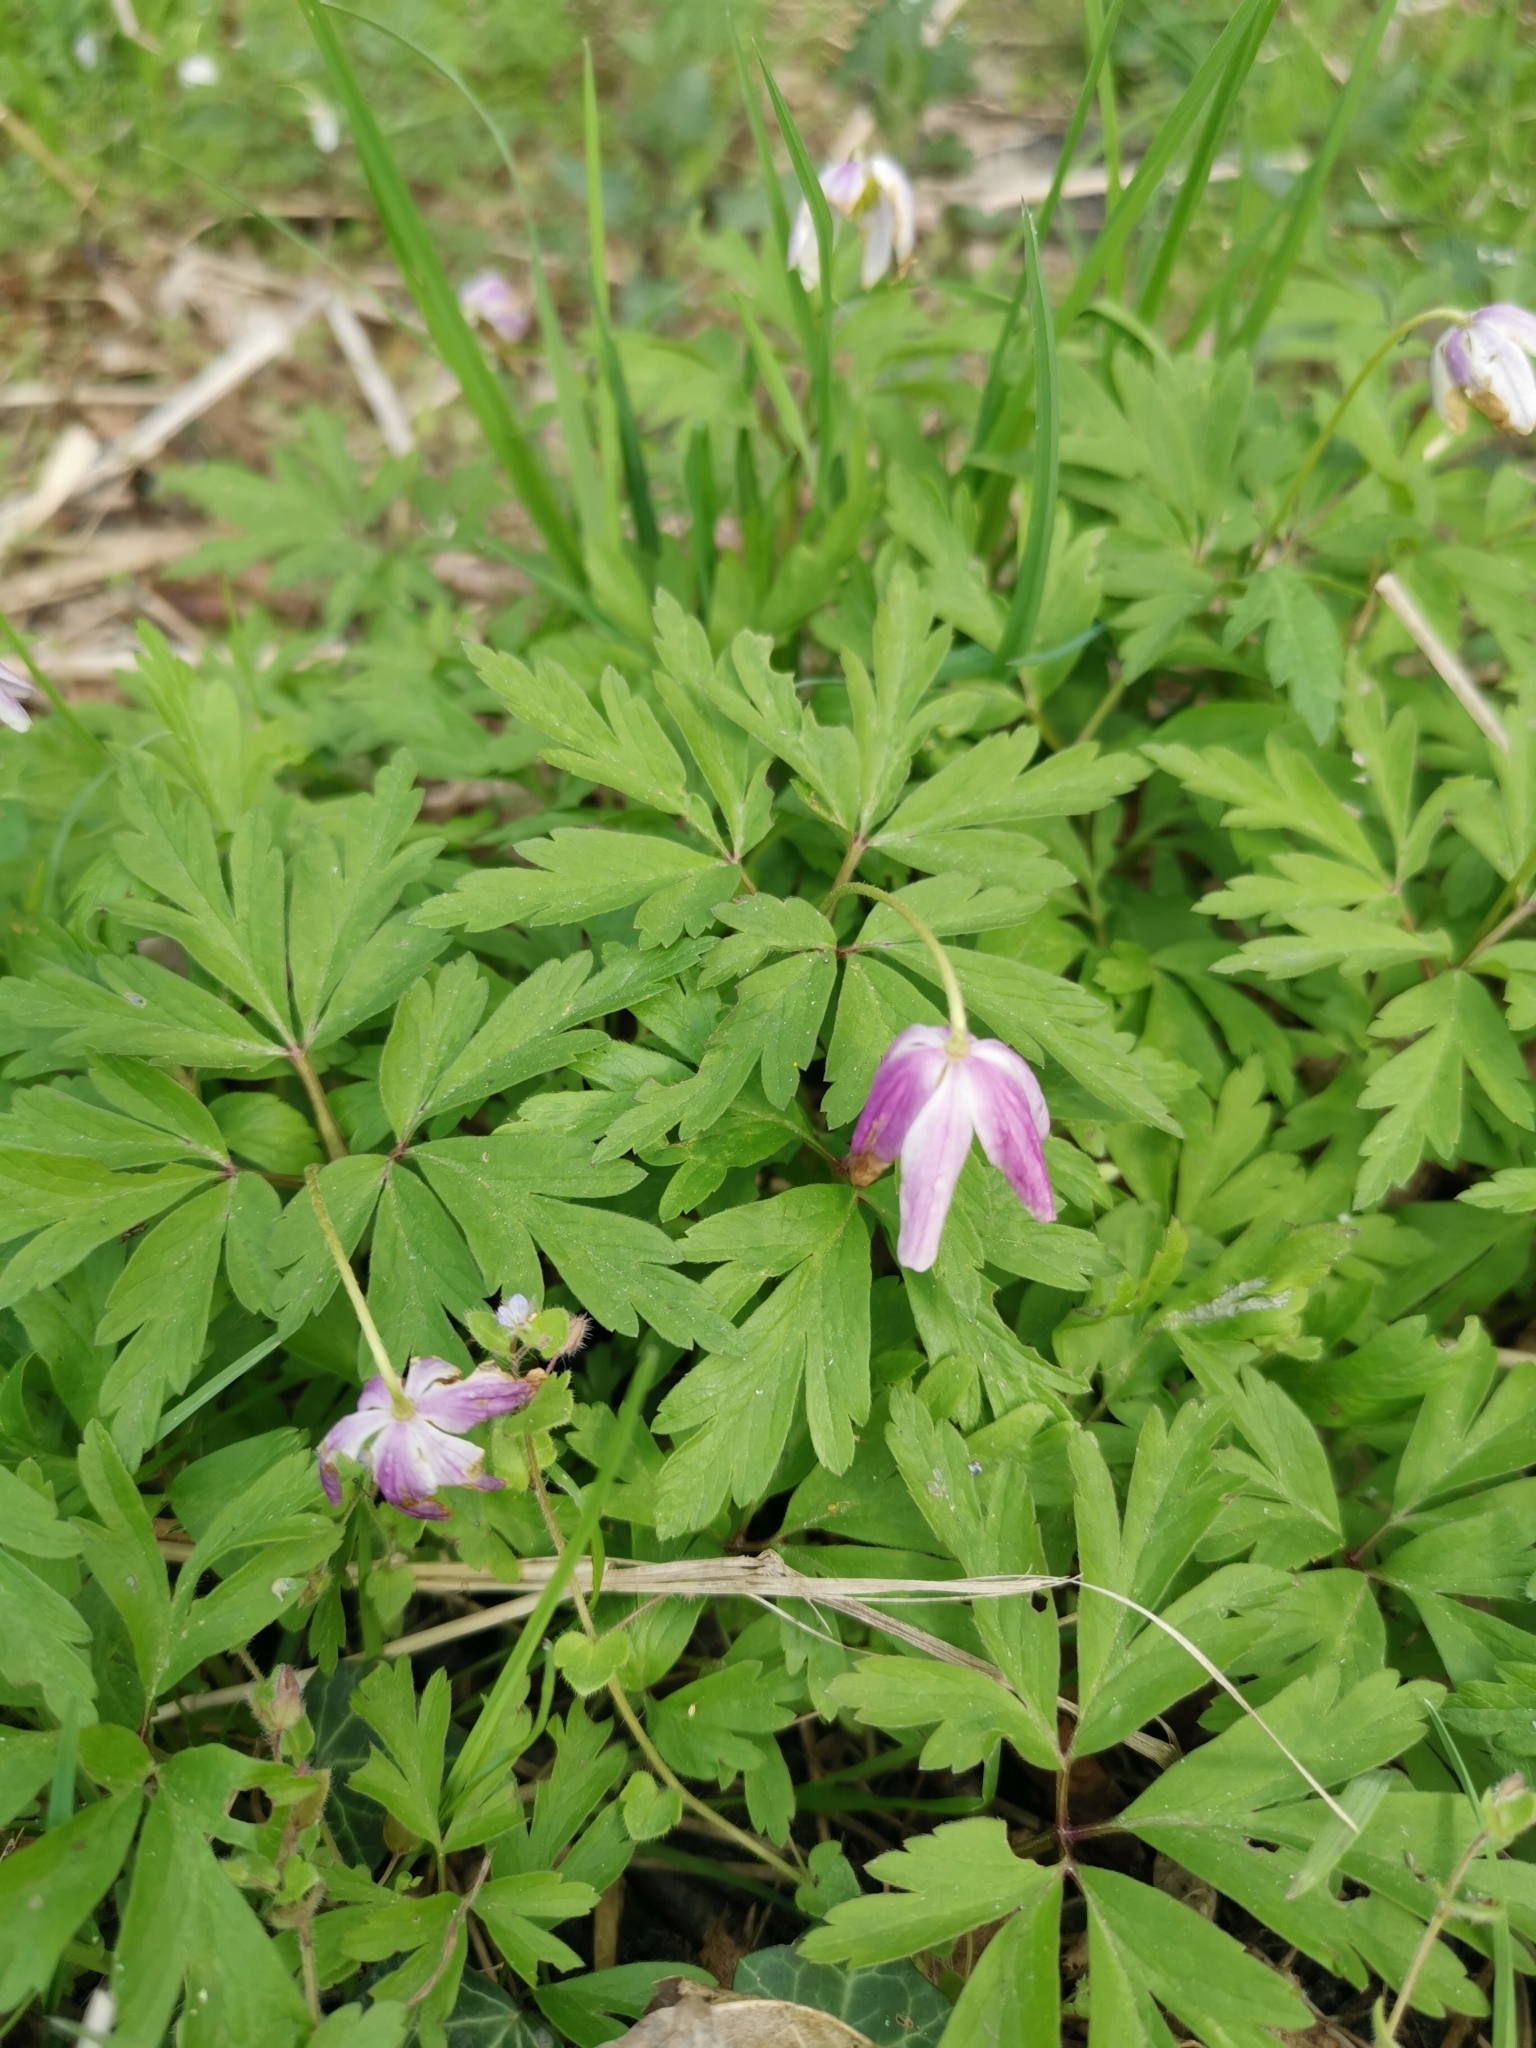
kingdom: Plantae
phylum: Tracheophyta
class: Magnoliopsida
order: Ranunculales
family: Ranunculaceae
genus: Anemone
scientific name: Anemone nemorosa
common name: Wood anemone
